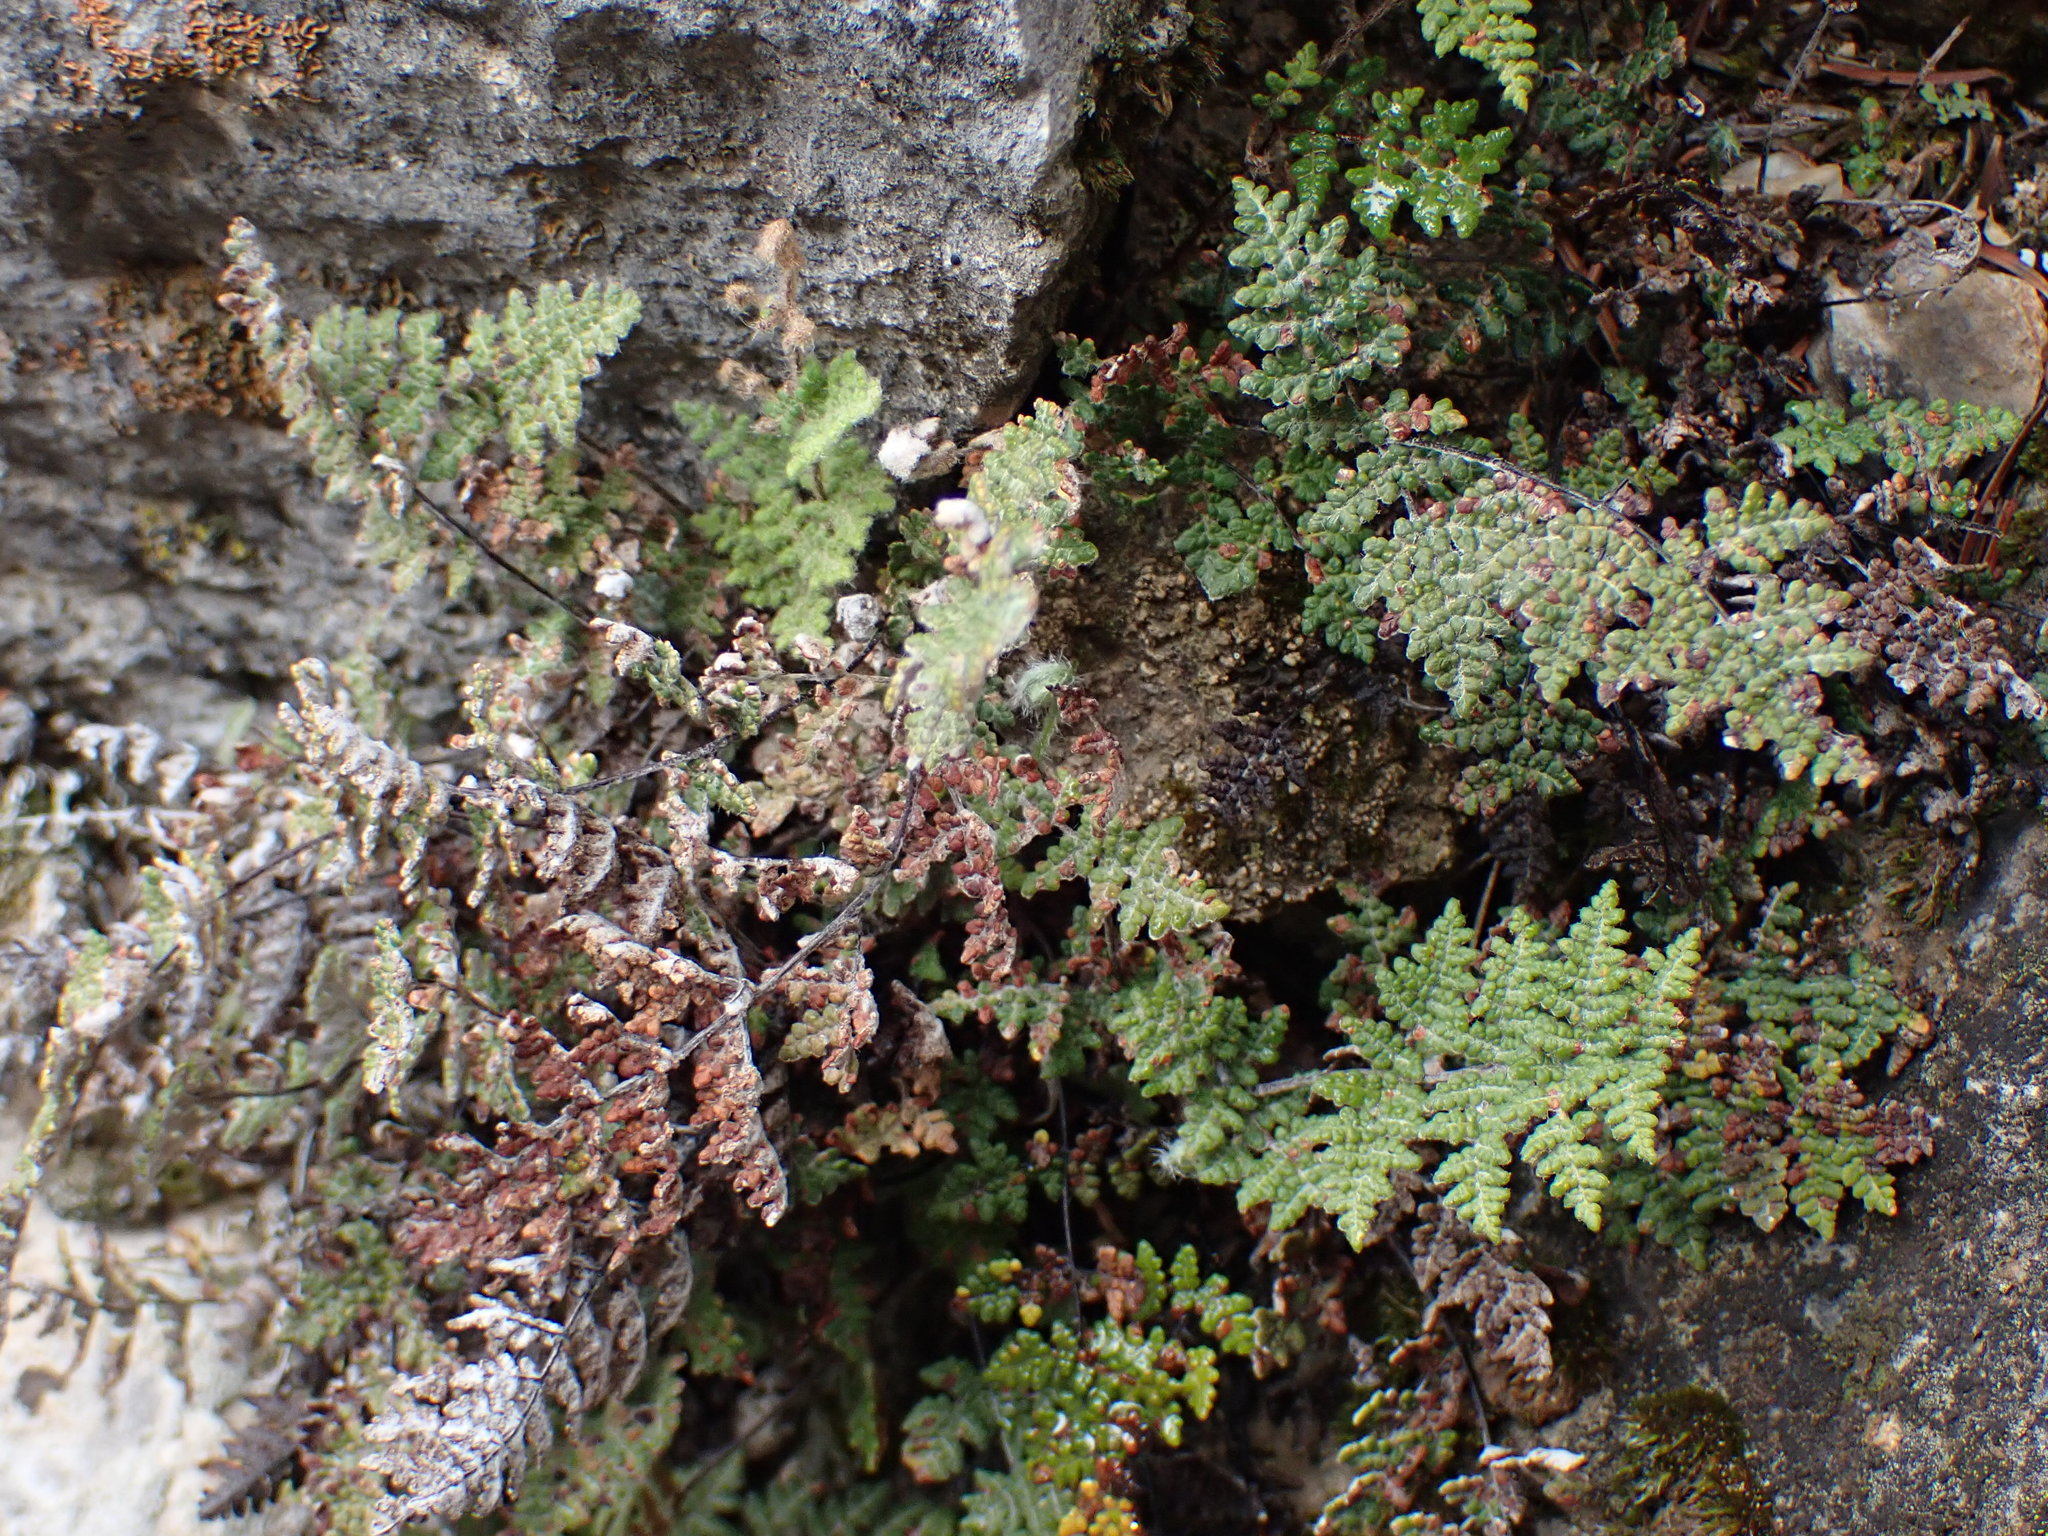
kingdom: Plantae
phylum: Tracheophyta
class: Polypodiopsida
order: Polypodiales
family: Pteridaceae
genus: Myriopteris
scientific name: Myriopteris gracilis
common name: Fee's lip fern
